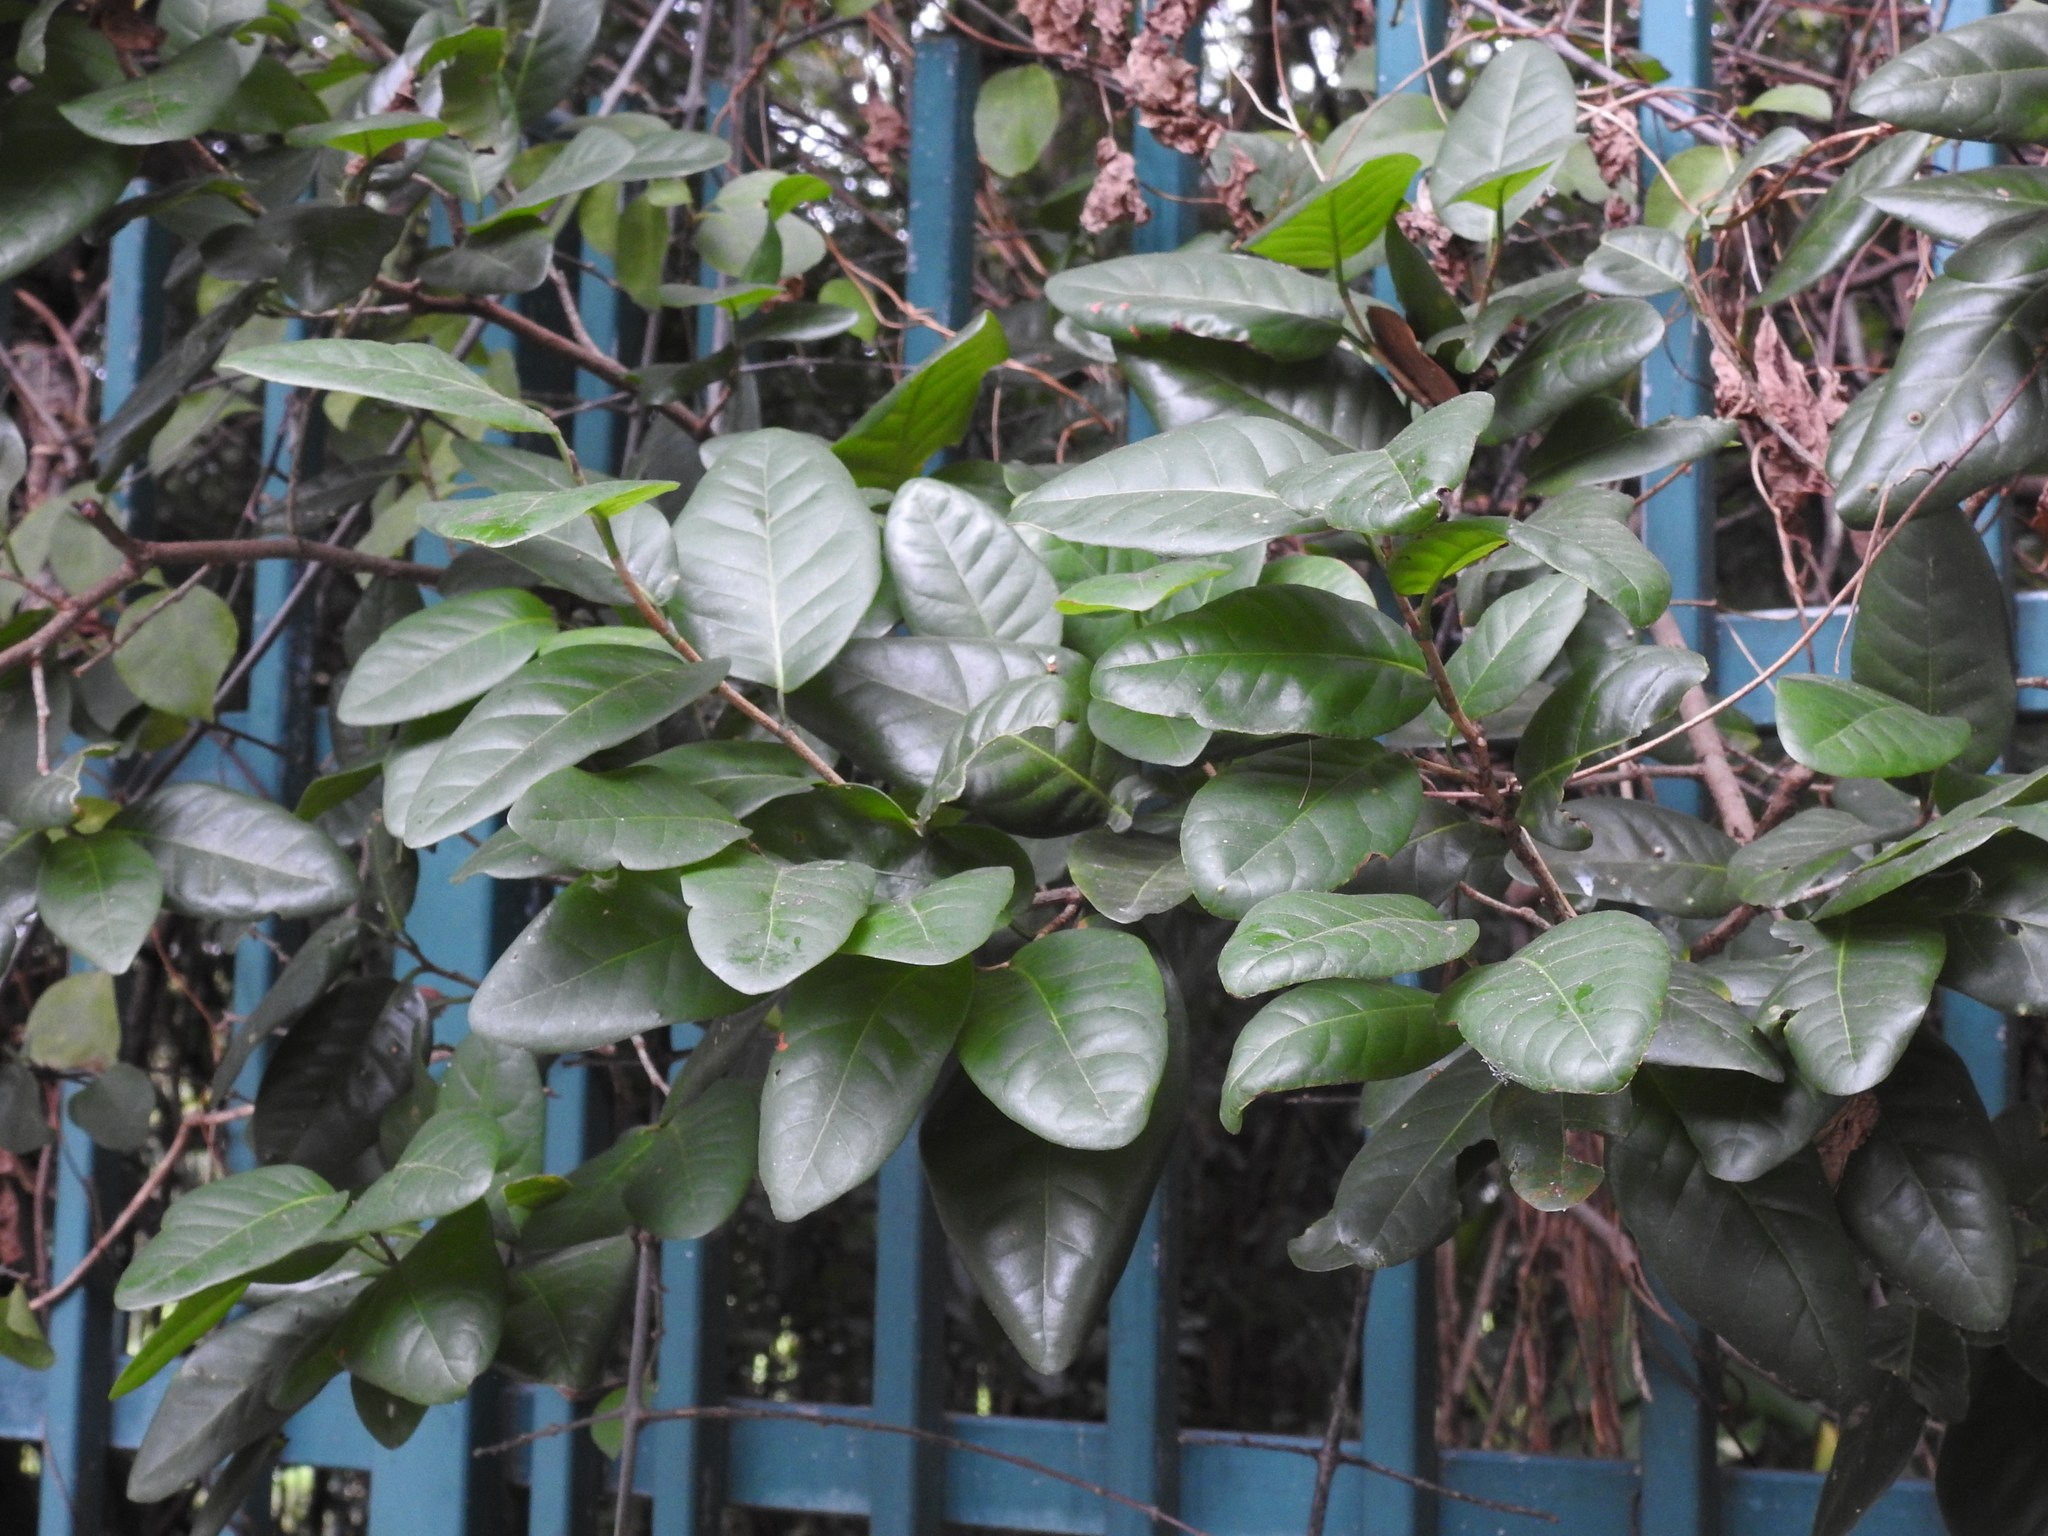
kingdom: Plantae
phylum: Tracheophyta
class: Magnoliopsida
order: Caryophyllales
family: Polygonaceae
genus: Coccoloba
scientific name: Coccoloba diversifolia
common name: Pigeon-plum
